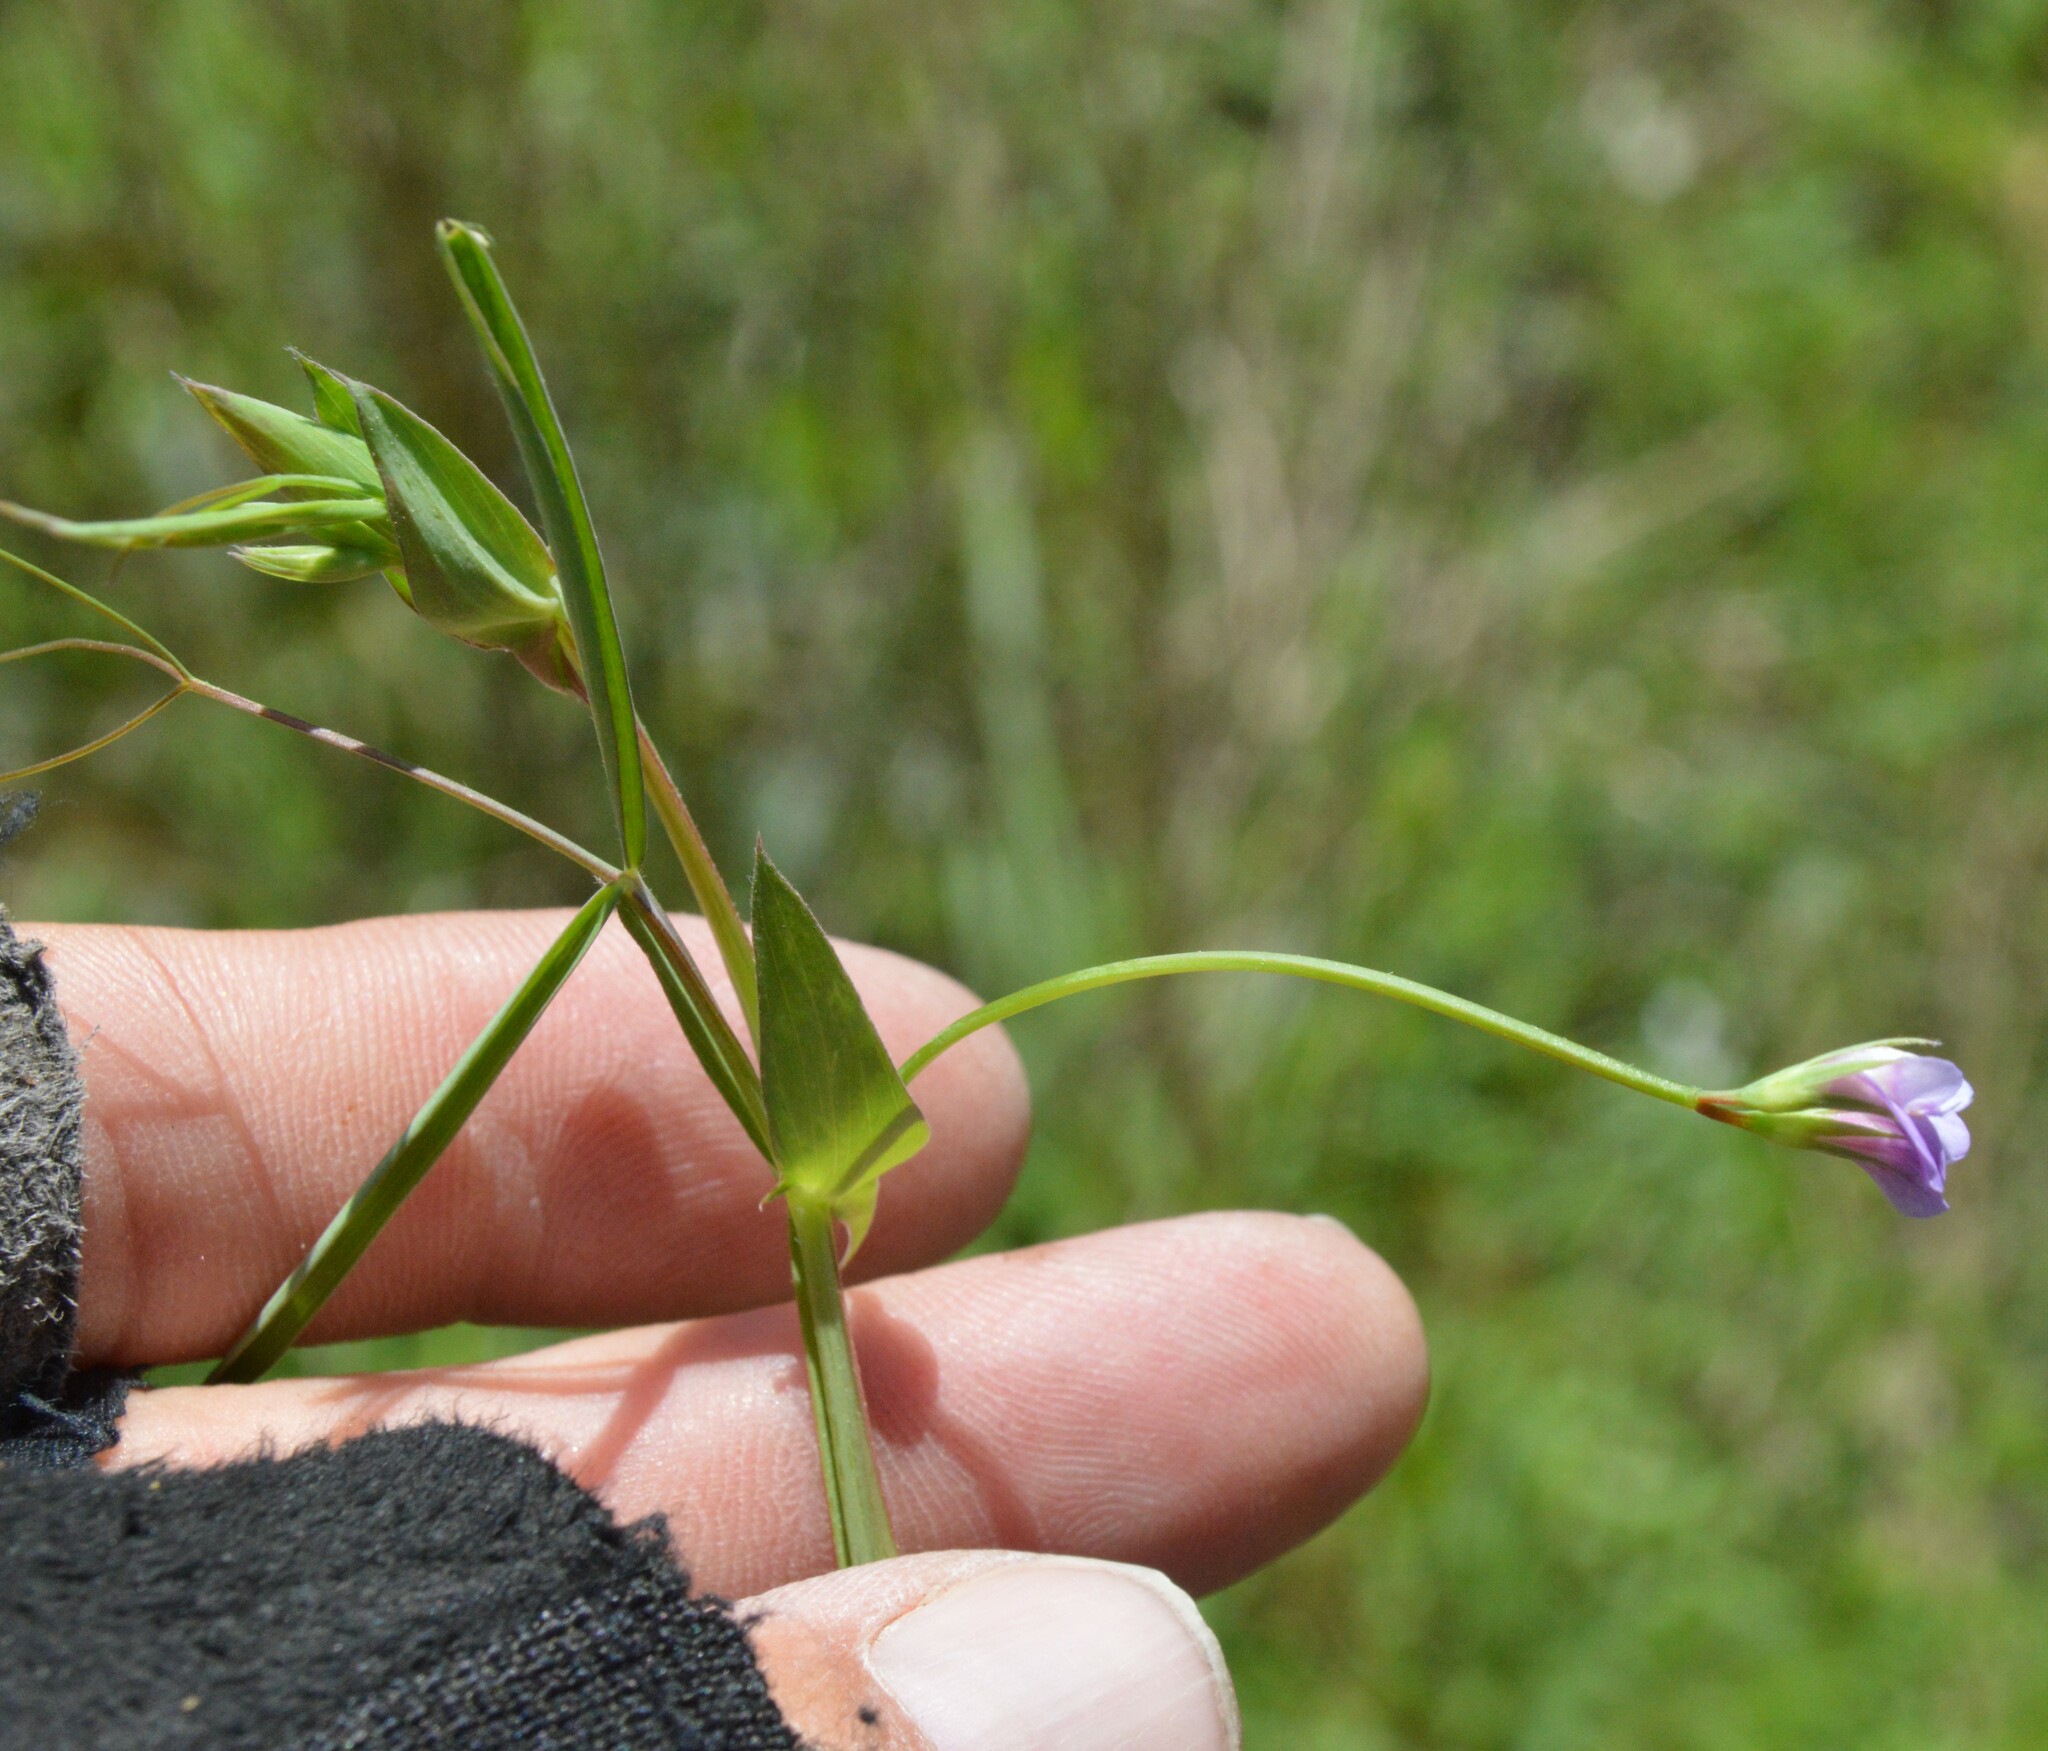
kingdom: Plantae
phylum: Tracheophyta
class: Magnoliopsida
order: Fabales
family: Fabaceae
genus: Lathyrus
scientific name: Lathyrus pusillus
